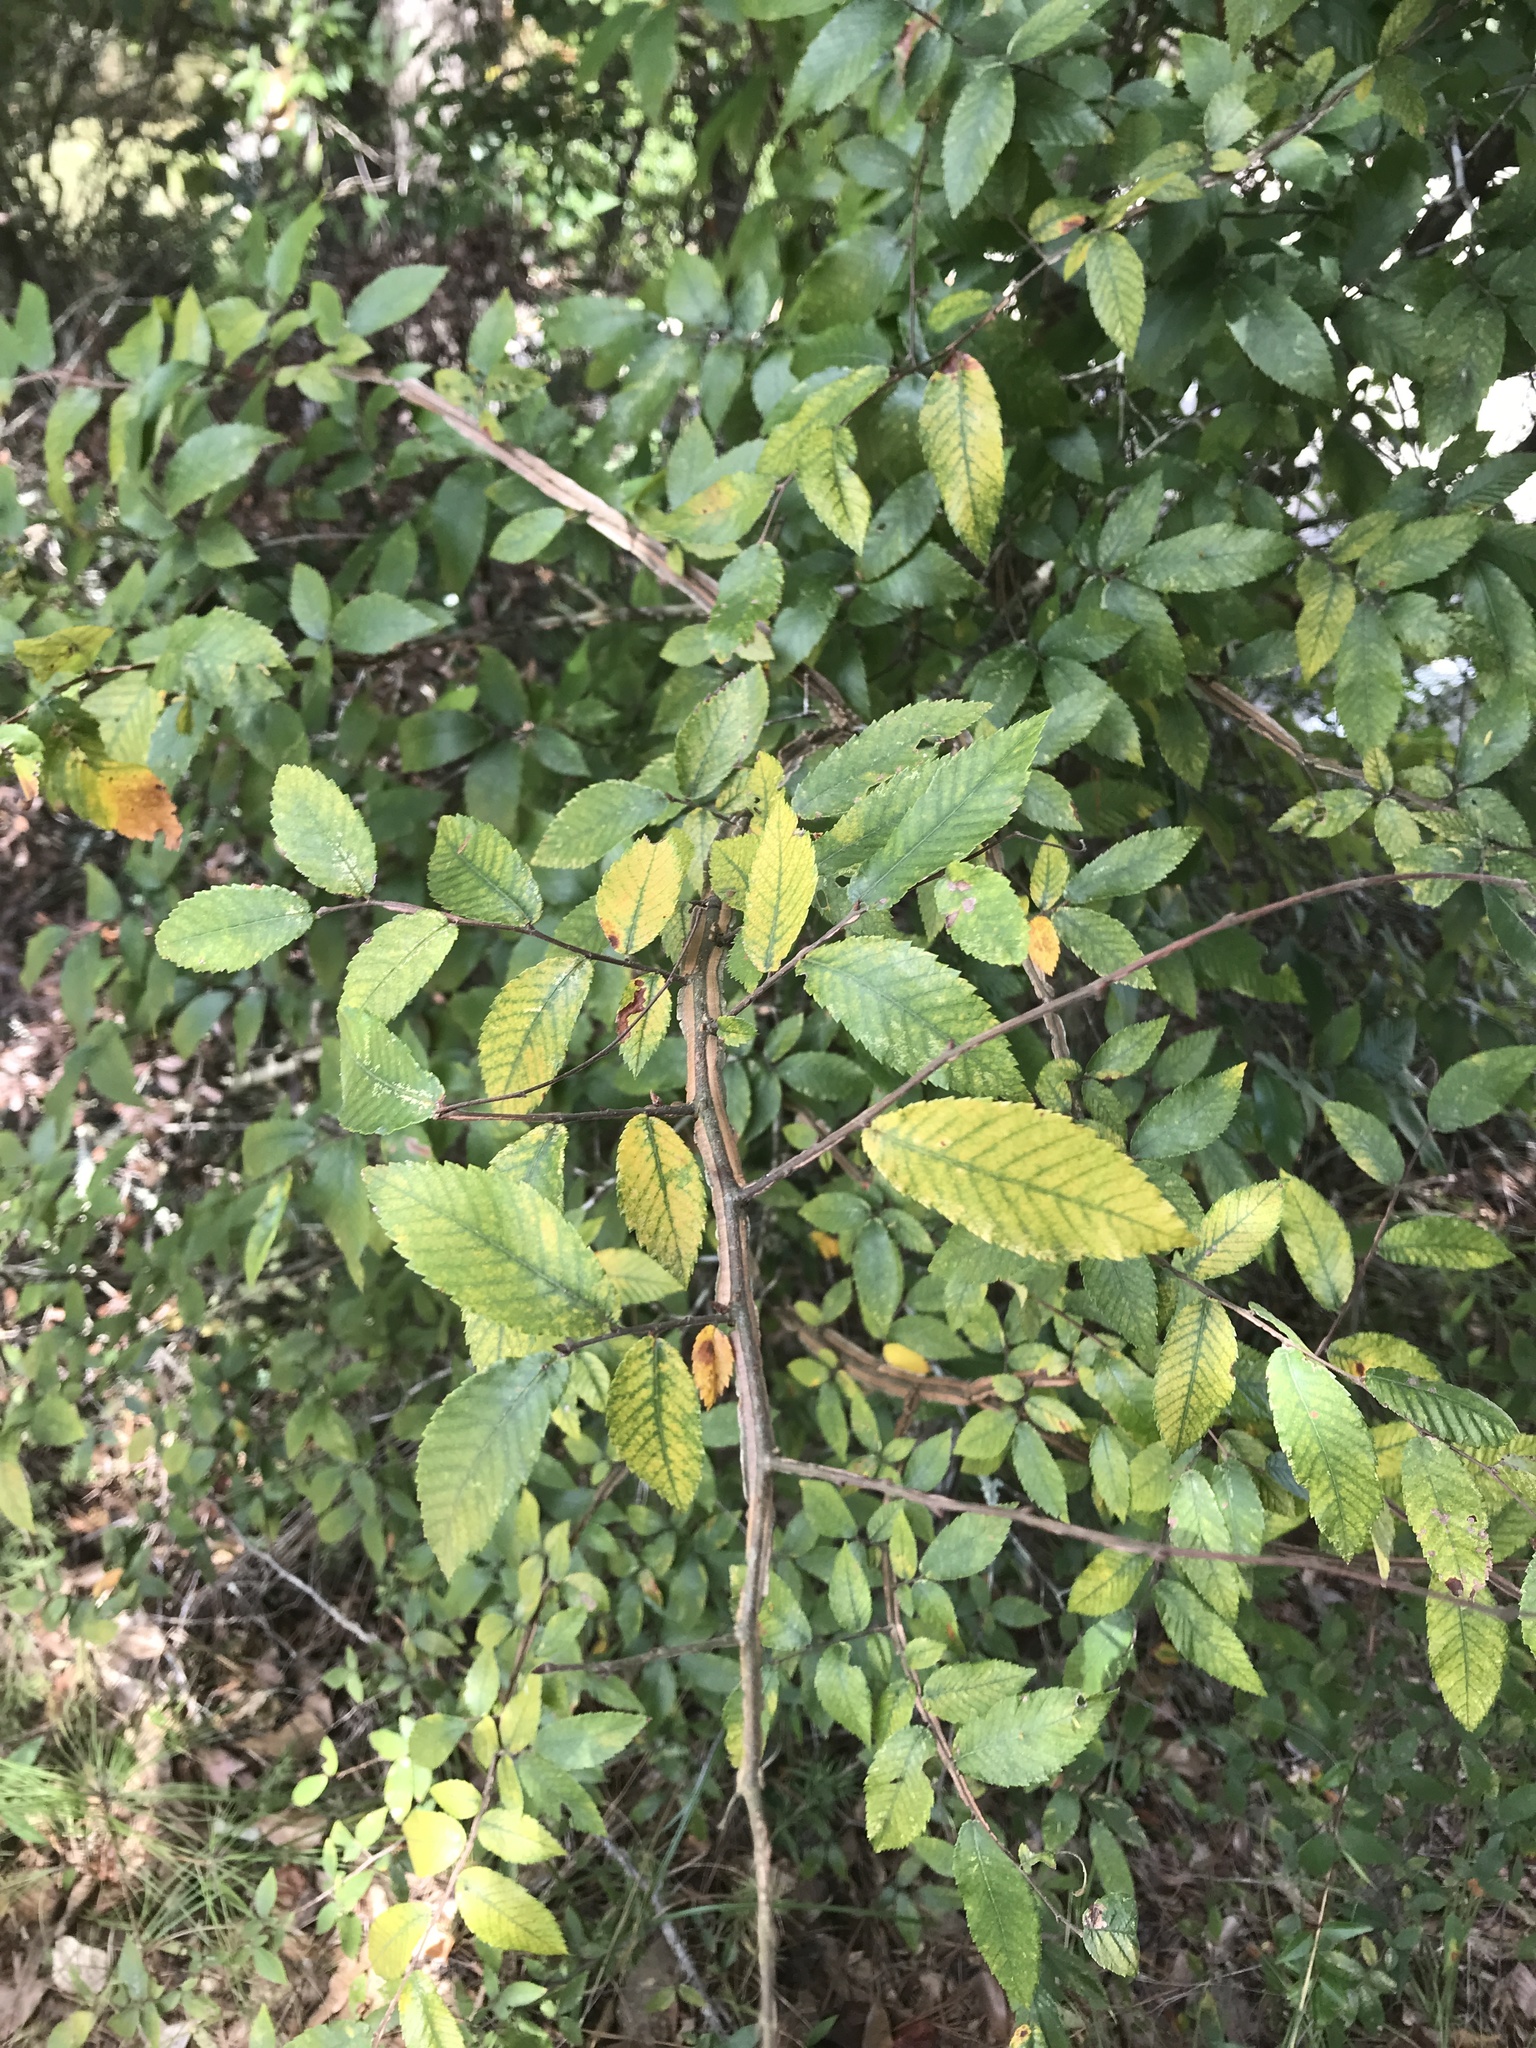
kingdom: Plantae
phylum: Tracheophyta
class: Magnoliopsida
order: Rosales
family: Ulmaceae
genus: Ulmus
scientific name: Ulmus alata
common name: Winged elm
